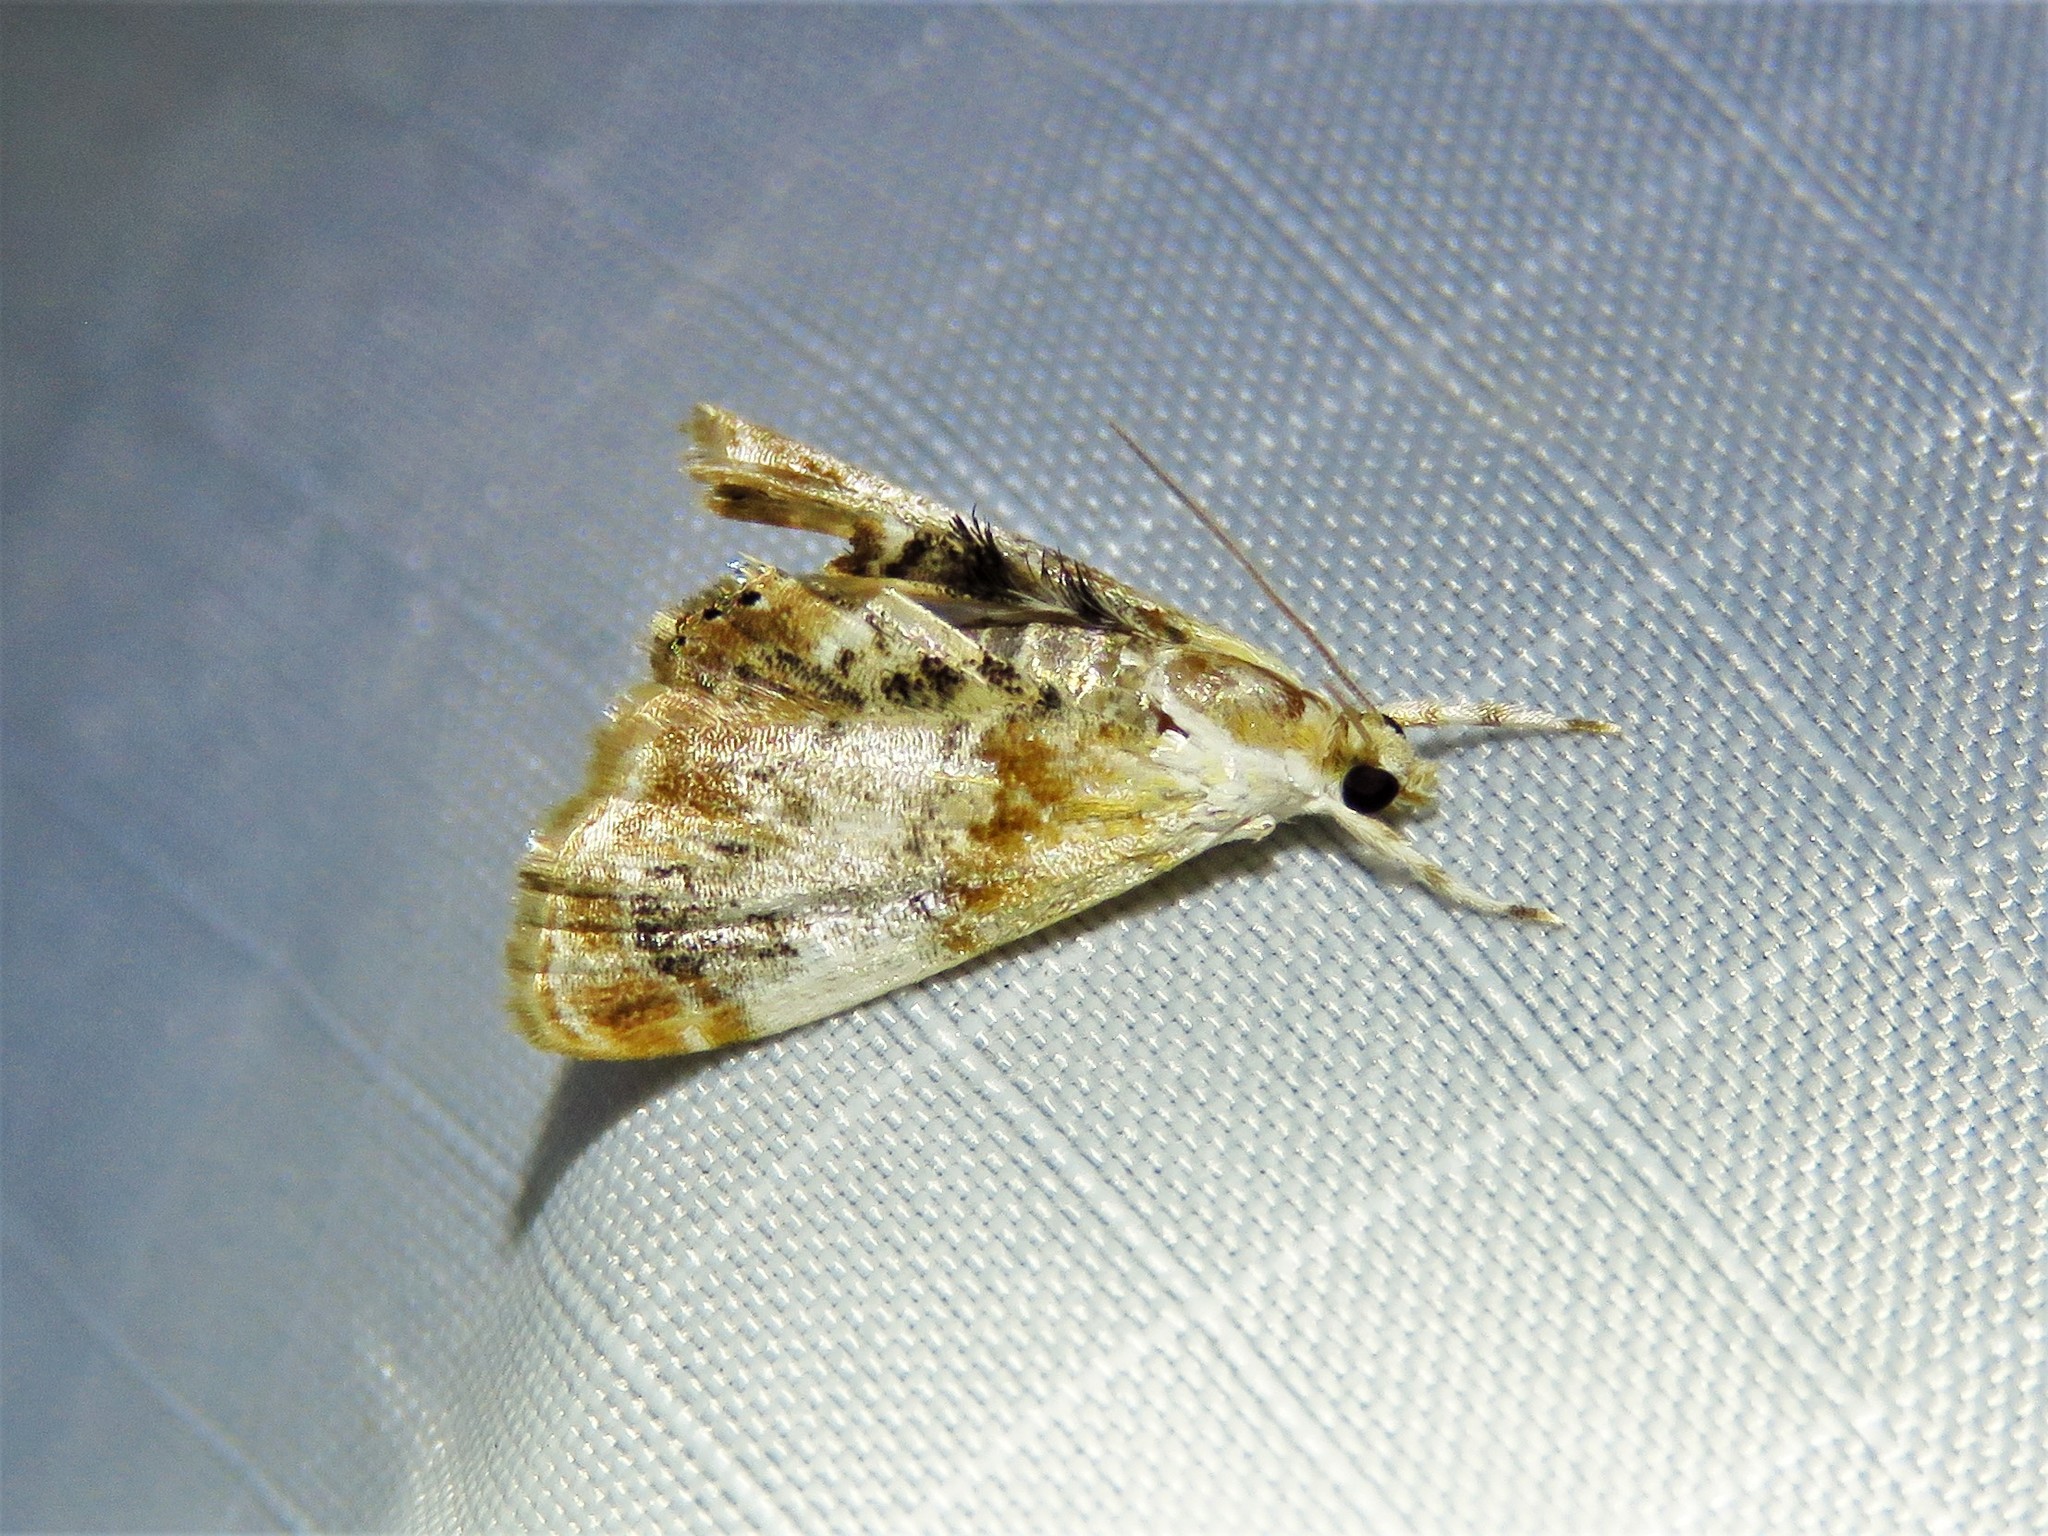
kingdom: Animalia
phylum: Arthropoda
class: Insecta
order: Lepidoptera
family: Crambidae
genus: Dicymolomia
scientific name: Dicymolomia julianalis
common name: Julia's dicymolomia moth
